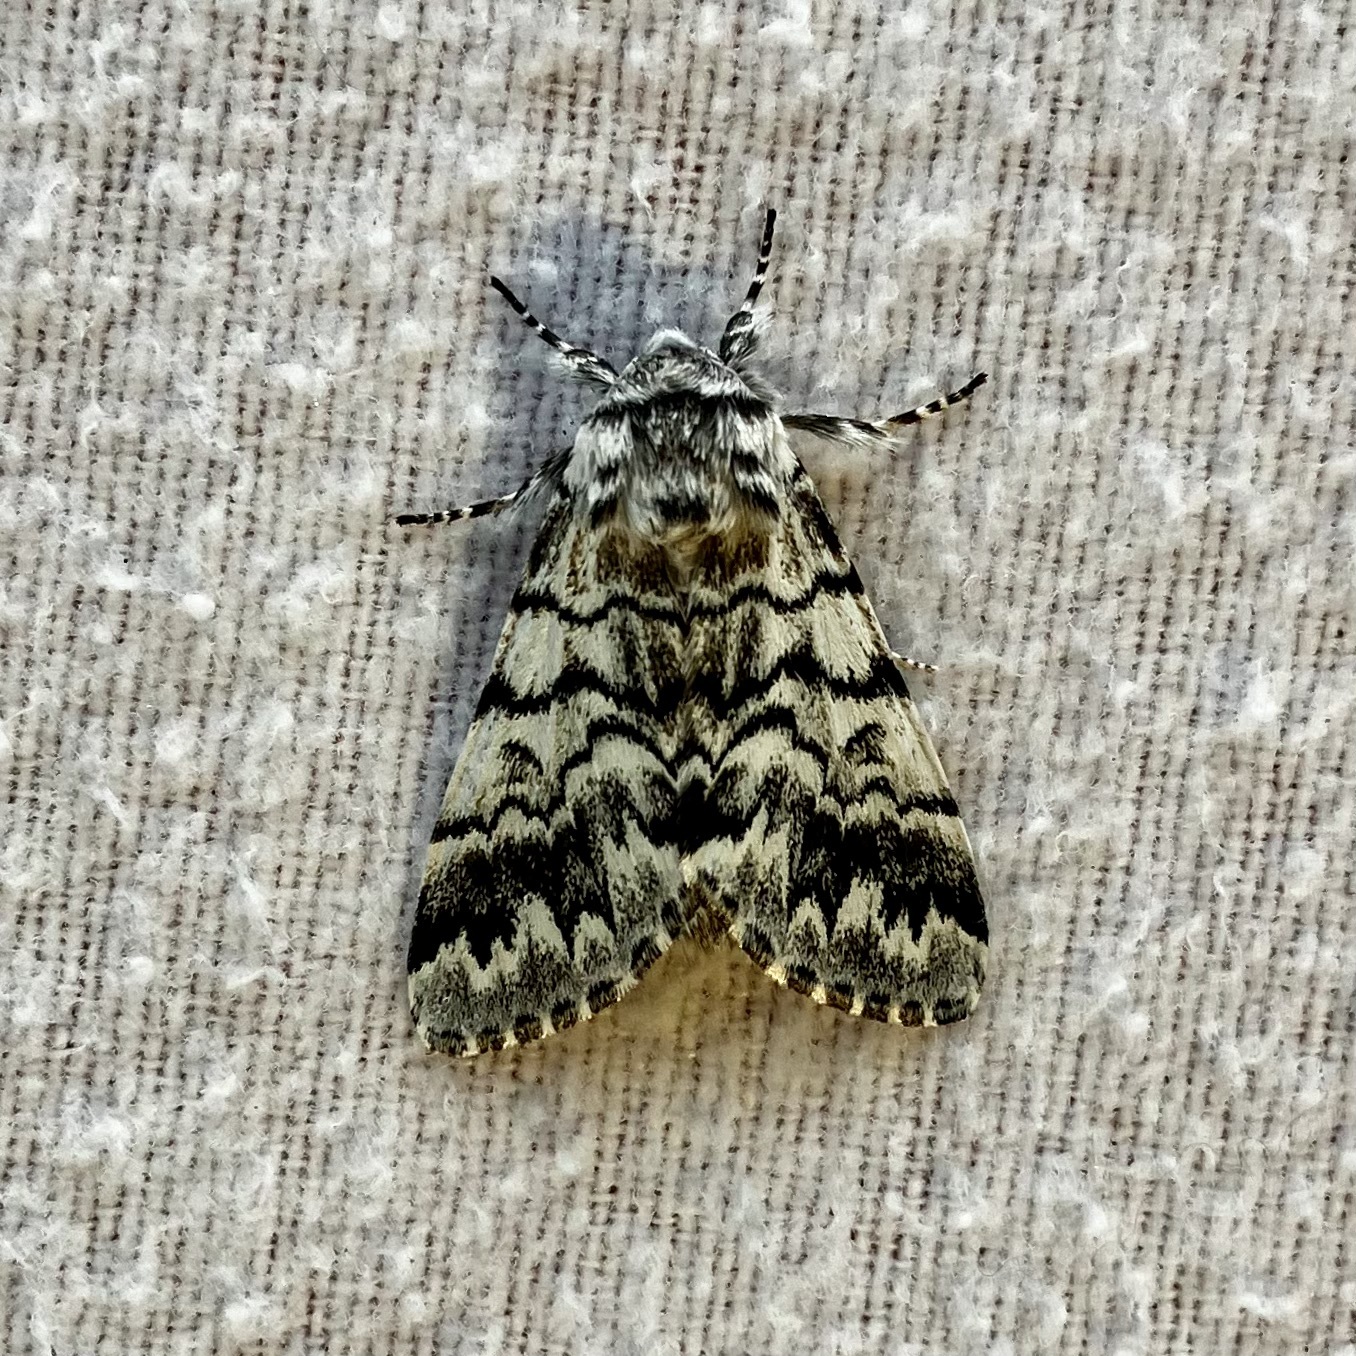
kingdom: Animalia
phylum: Arthropoda
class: Insecta
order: Lepidoptera
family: Noctuidae
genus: Panthea
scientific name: Panthea virginarius
